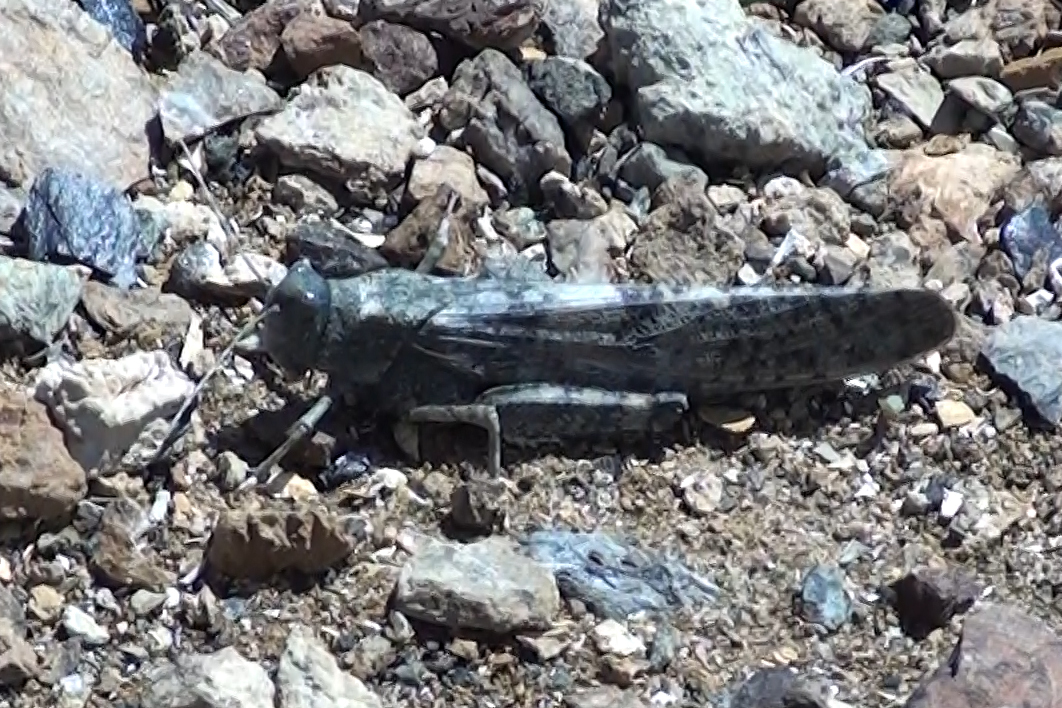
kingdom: Animalia
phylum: Arthropoda
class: Insecta
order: Orthoptera
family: Acrididae
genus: Bryodema
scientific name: Bryodema gebleri
